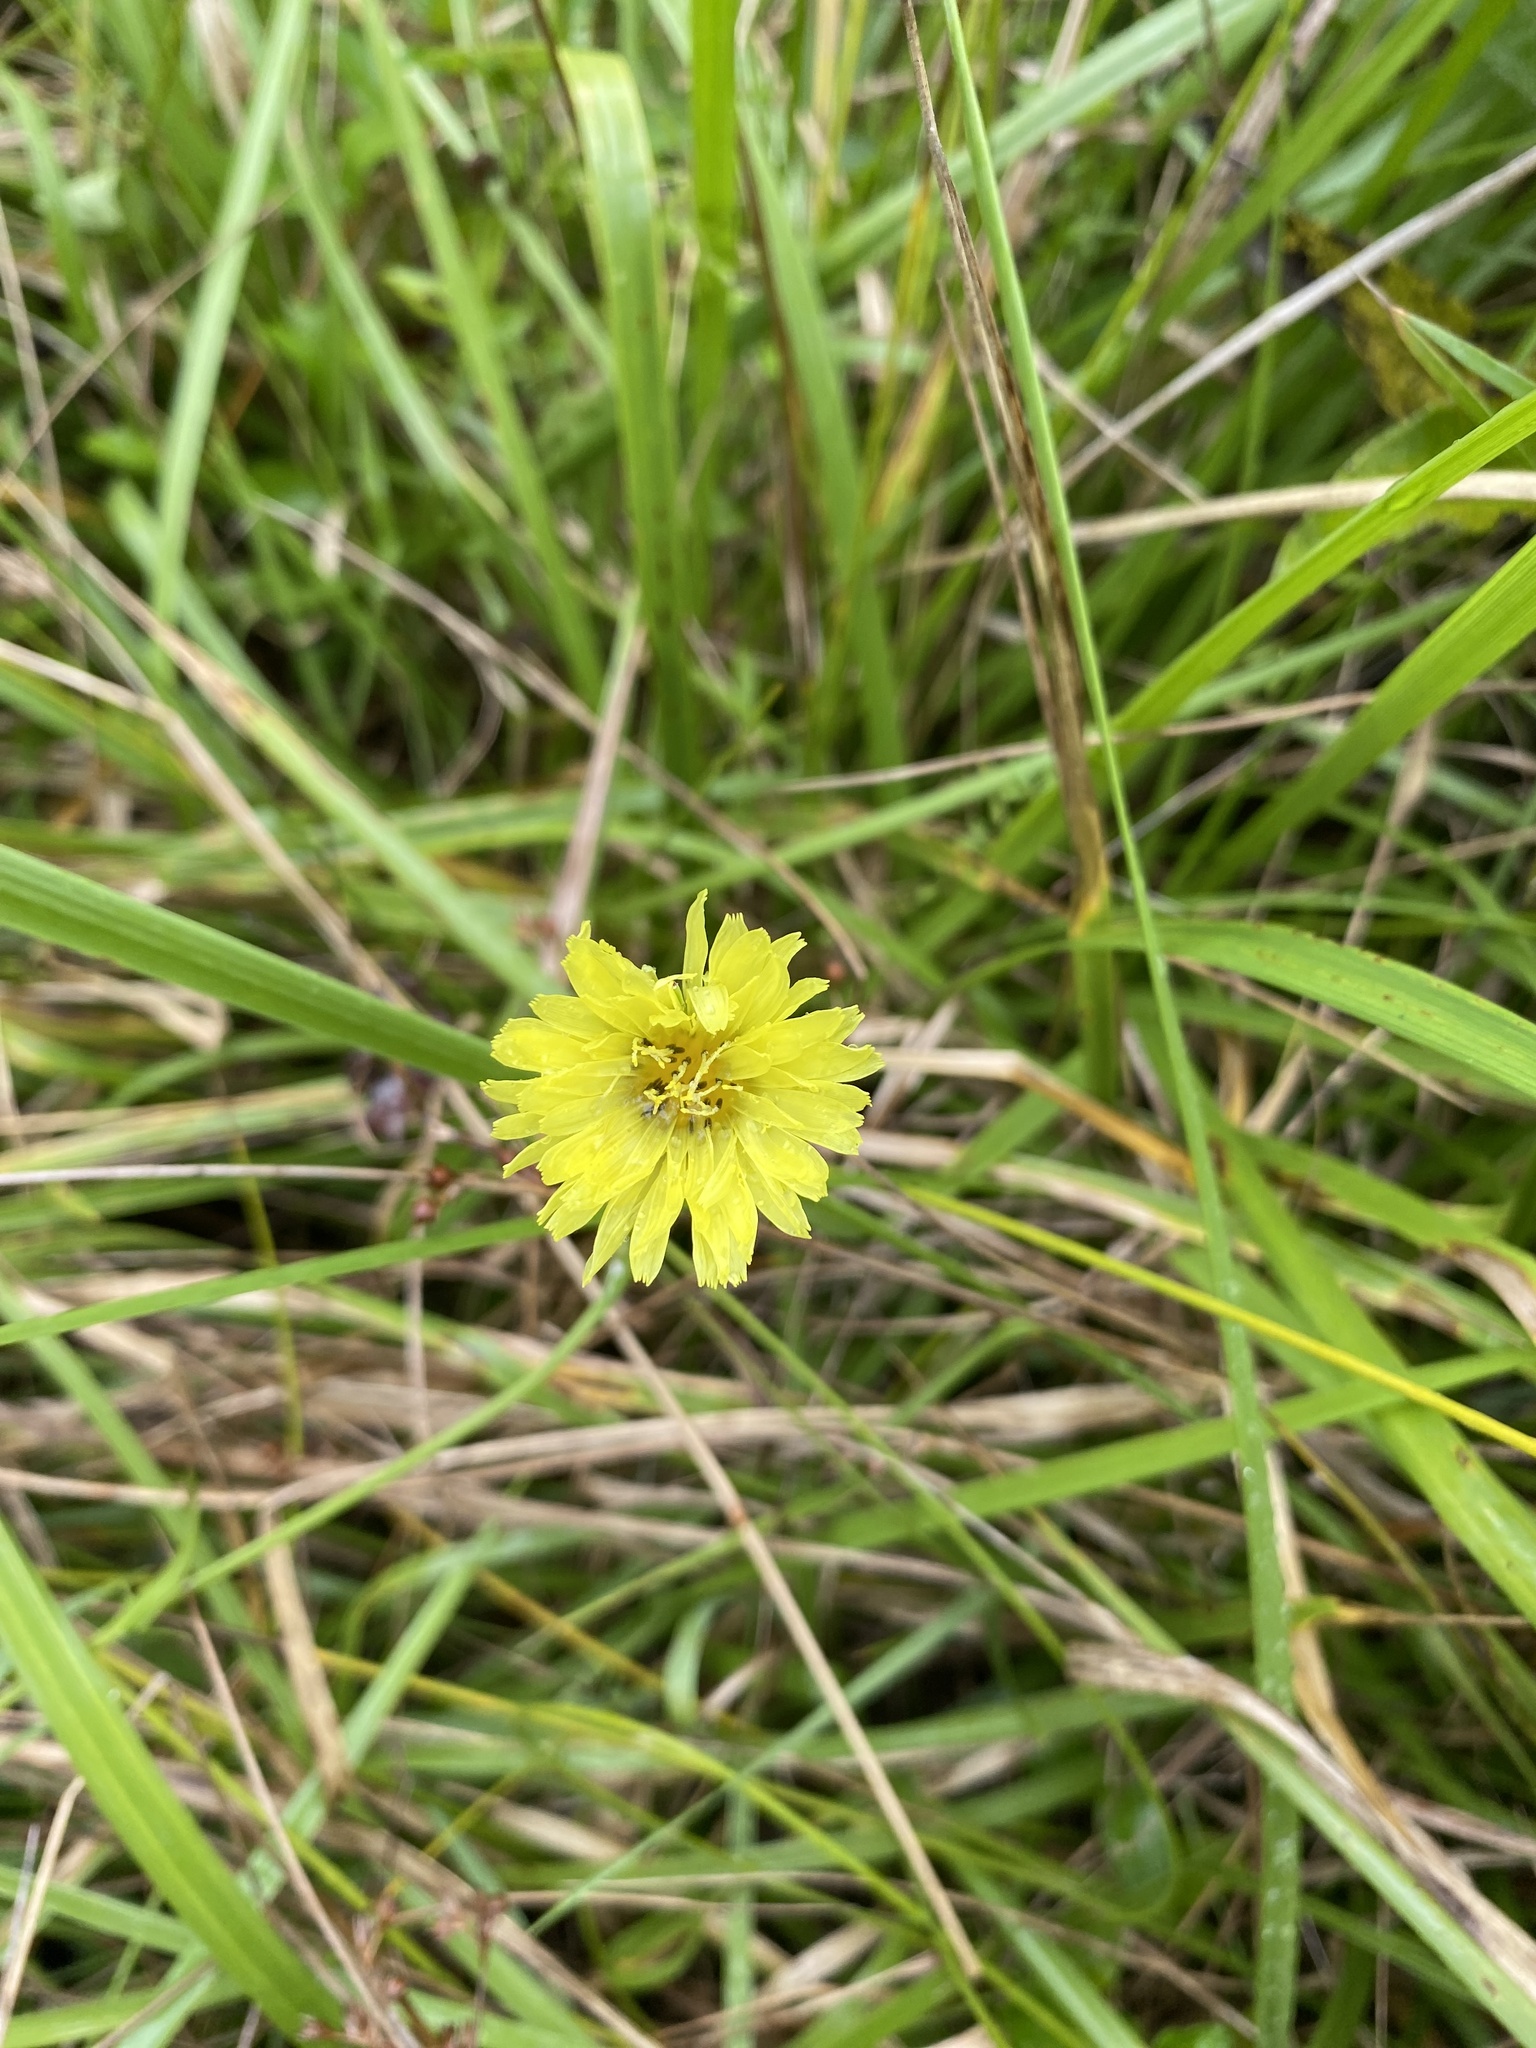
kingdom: Plantae
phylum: Tracheophyta
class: Magnoliopsida
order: Asterales
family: Asteraceae
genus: Pyrrhopappus
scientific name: Pyrrhopappus carolinianus
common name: Carolina desert-chicory
